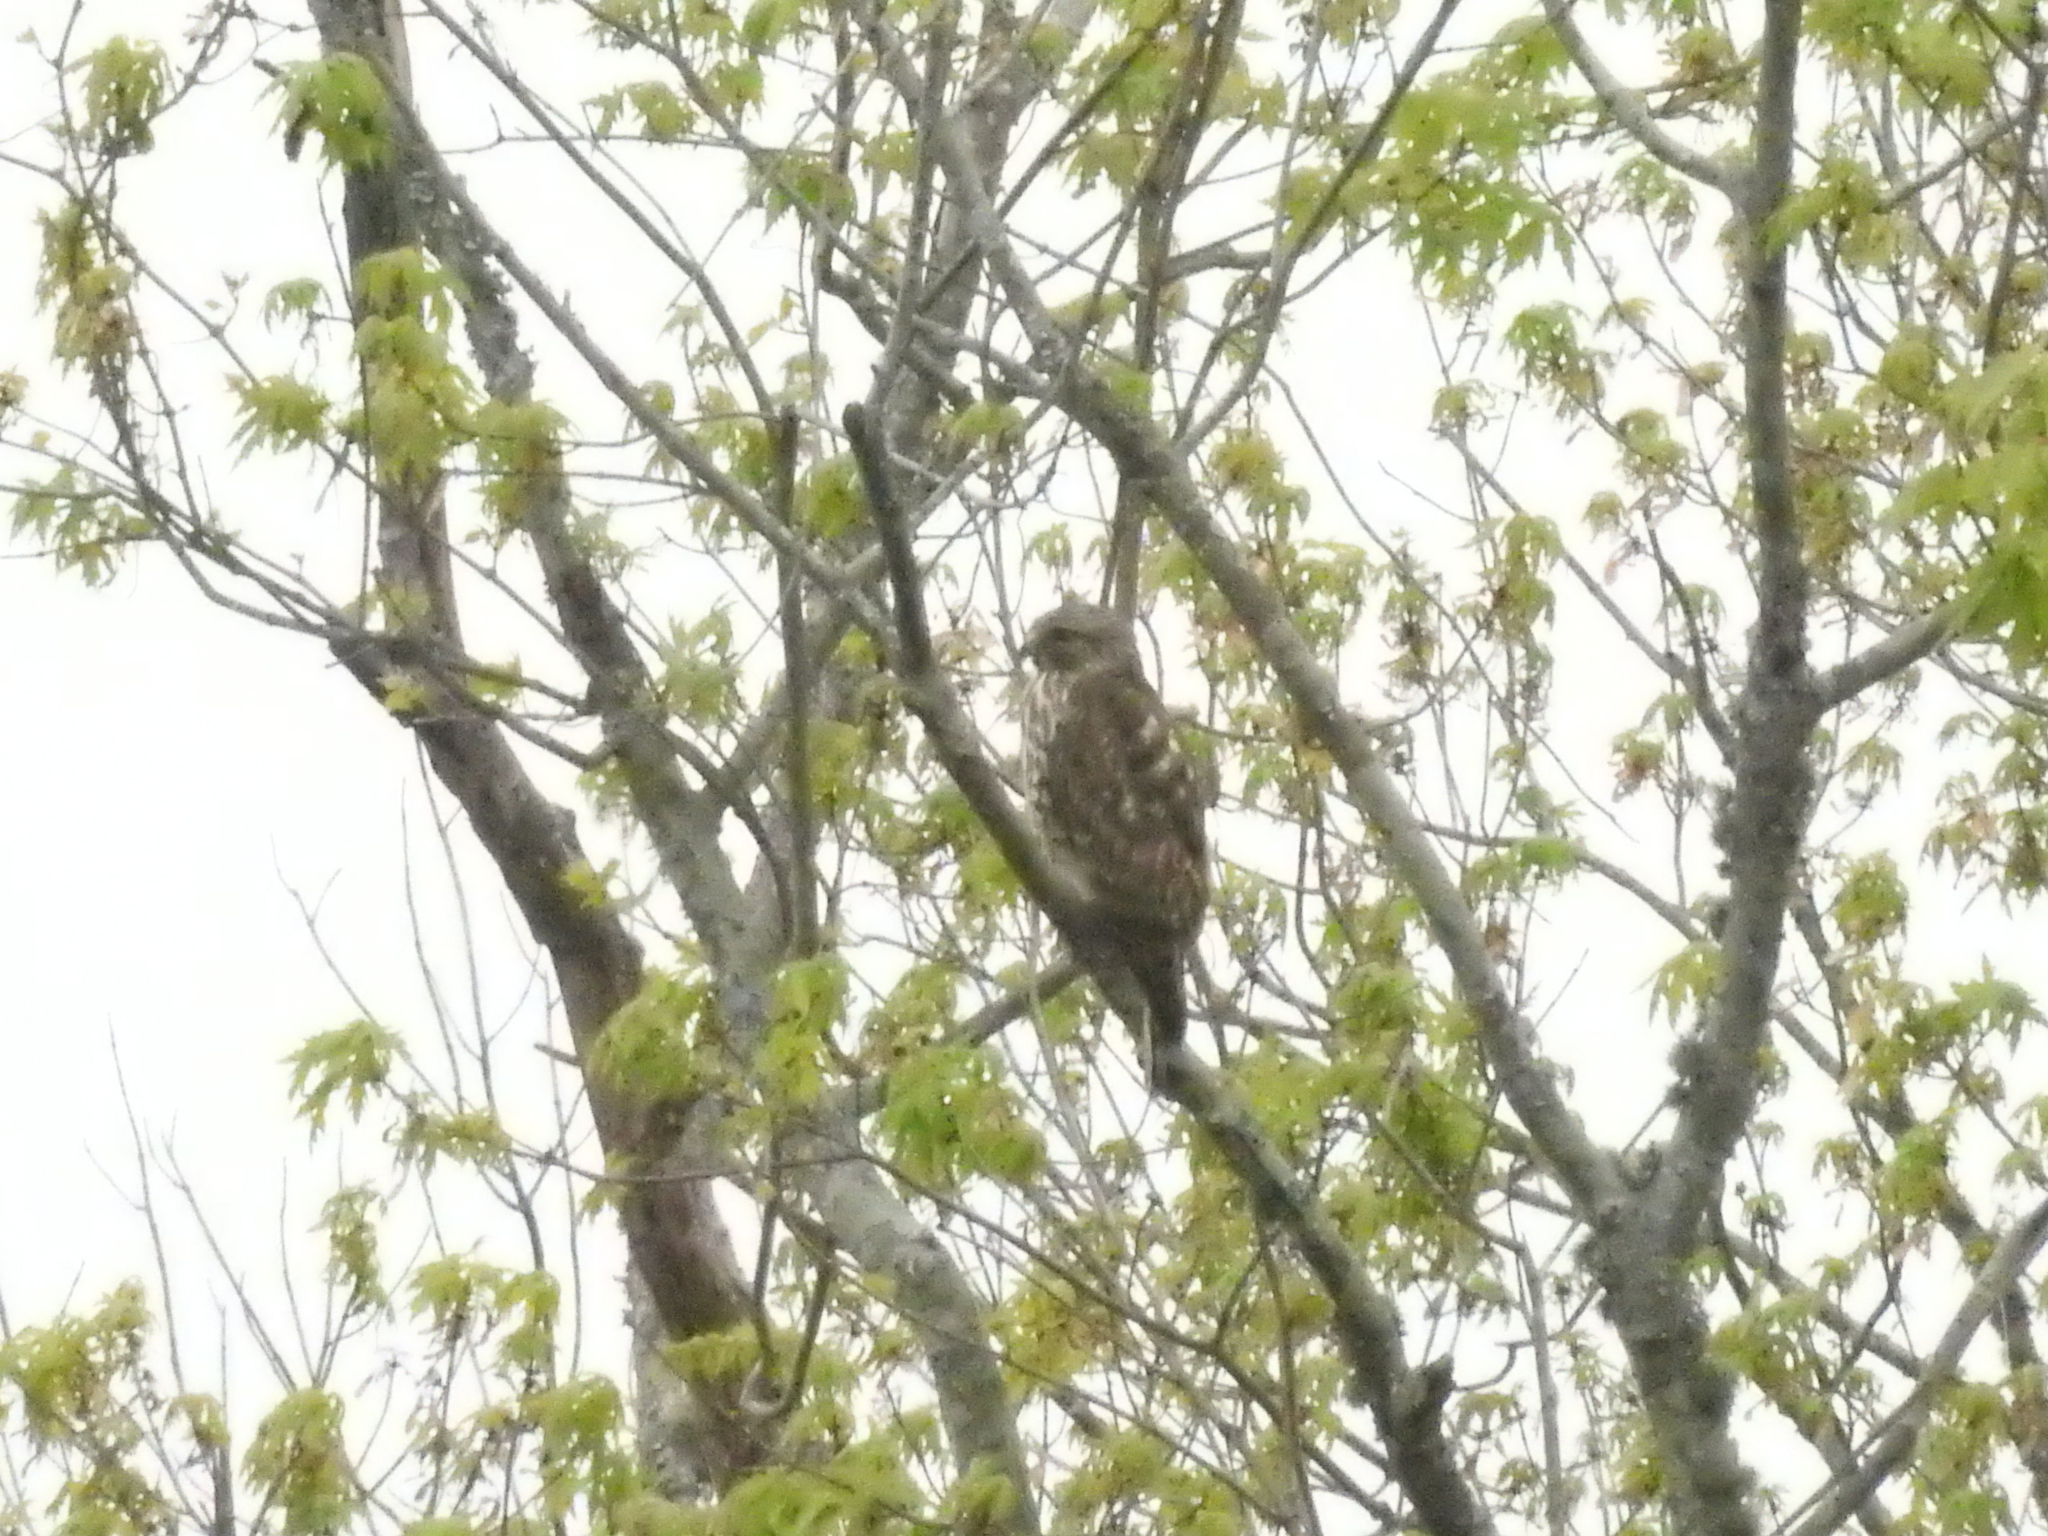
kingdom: Animalia
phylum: Chordata
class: Aves
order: Accipitriformes
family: Accipitridae
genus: Buteo
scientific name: Buteo lineatus
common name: Red-shouldered hawk
